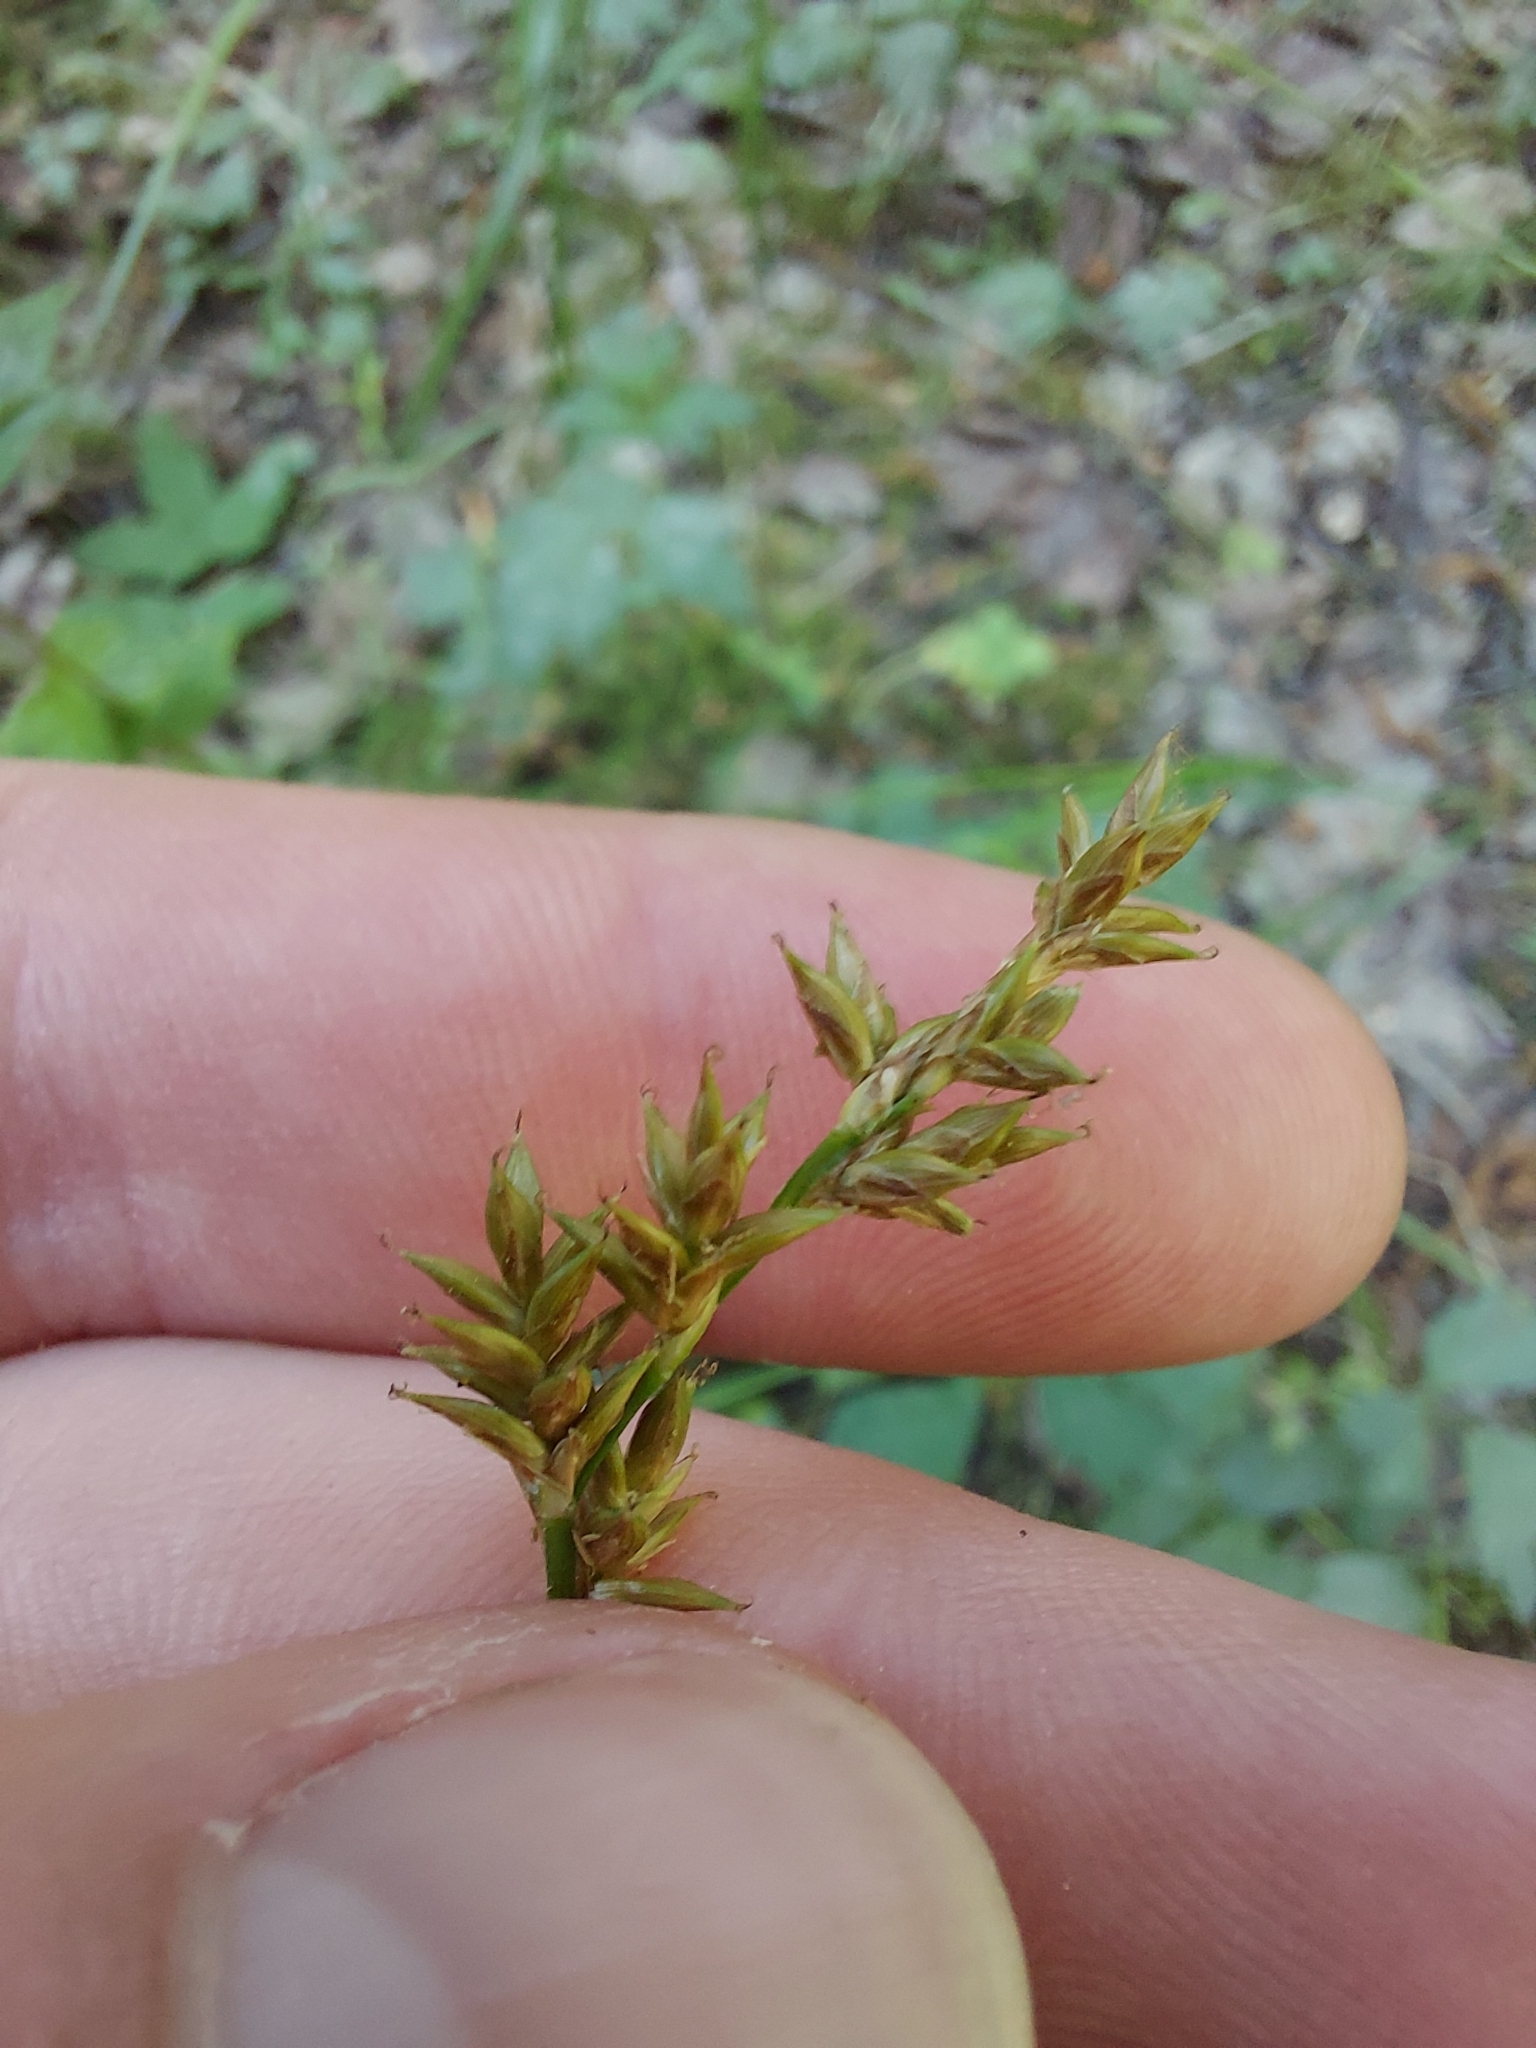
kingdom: Plantae
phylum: Tracheophyta
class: Liliopsida
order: Poales
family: Cyperaceae
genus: Carex
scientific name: Carex elongata
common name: Elongated sedge
